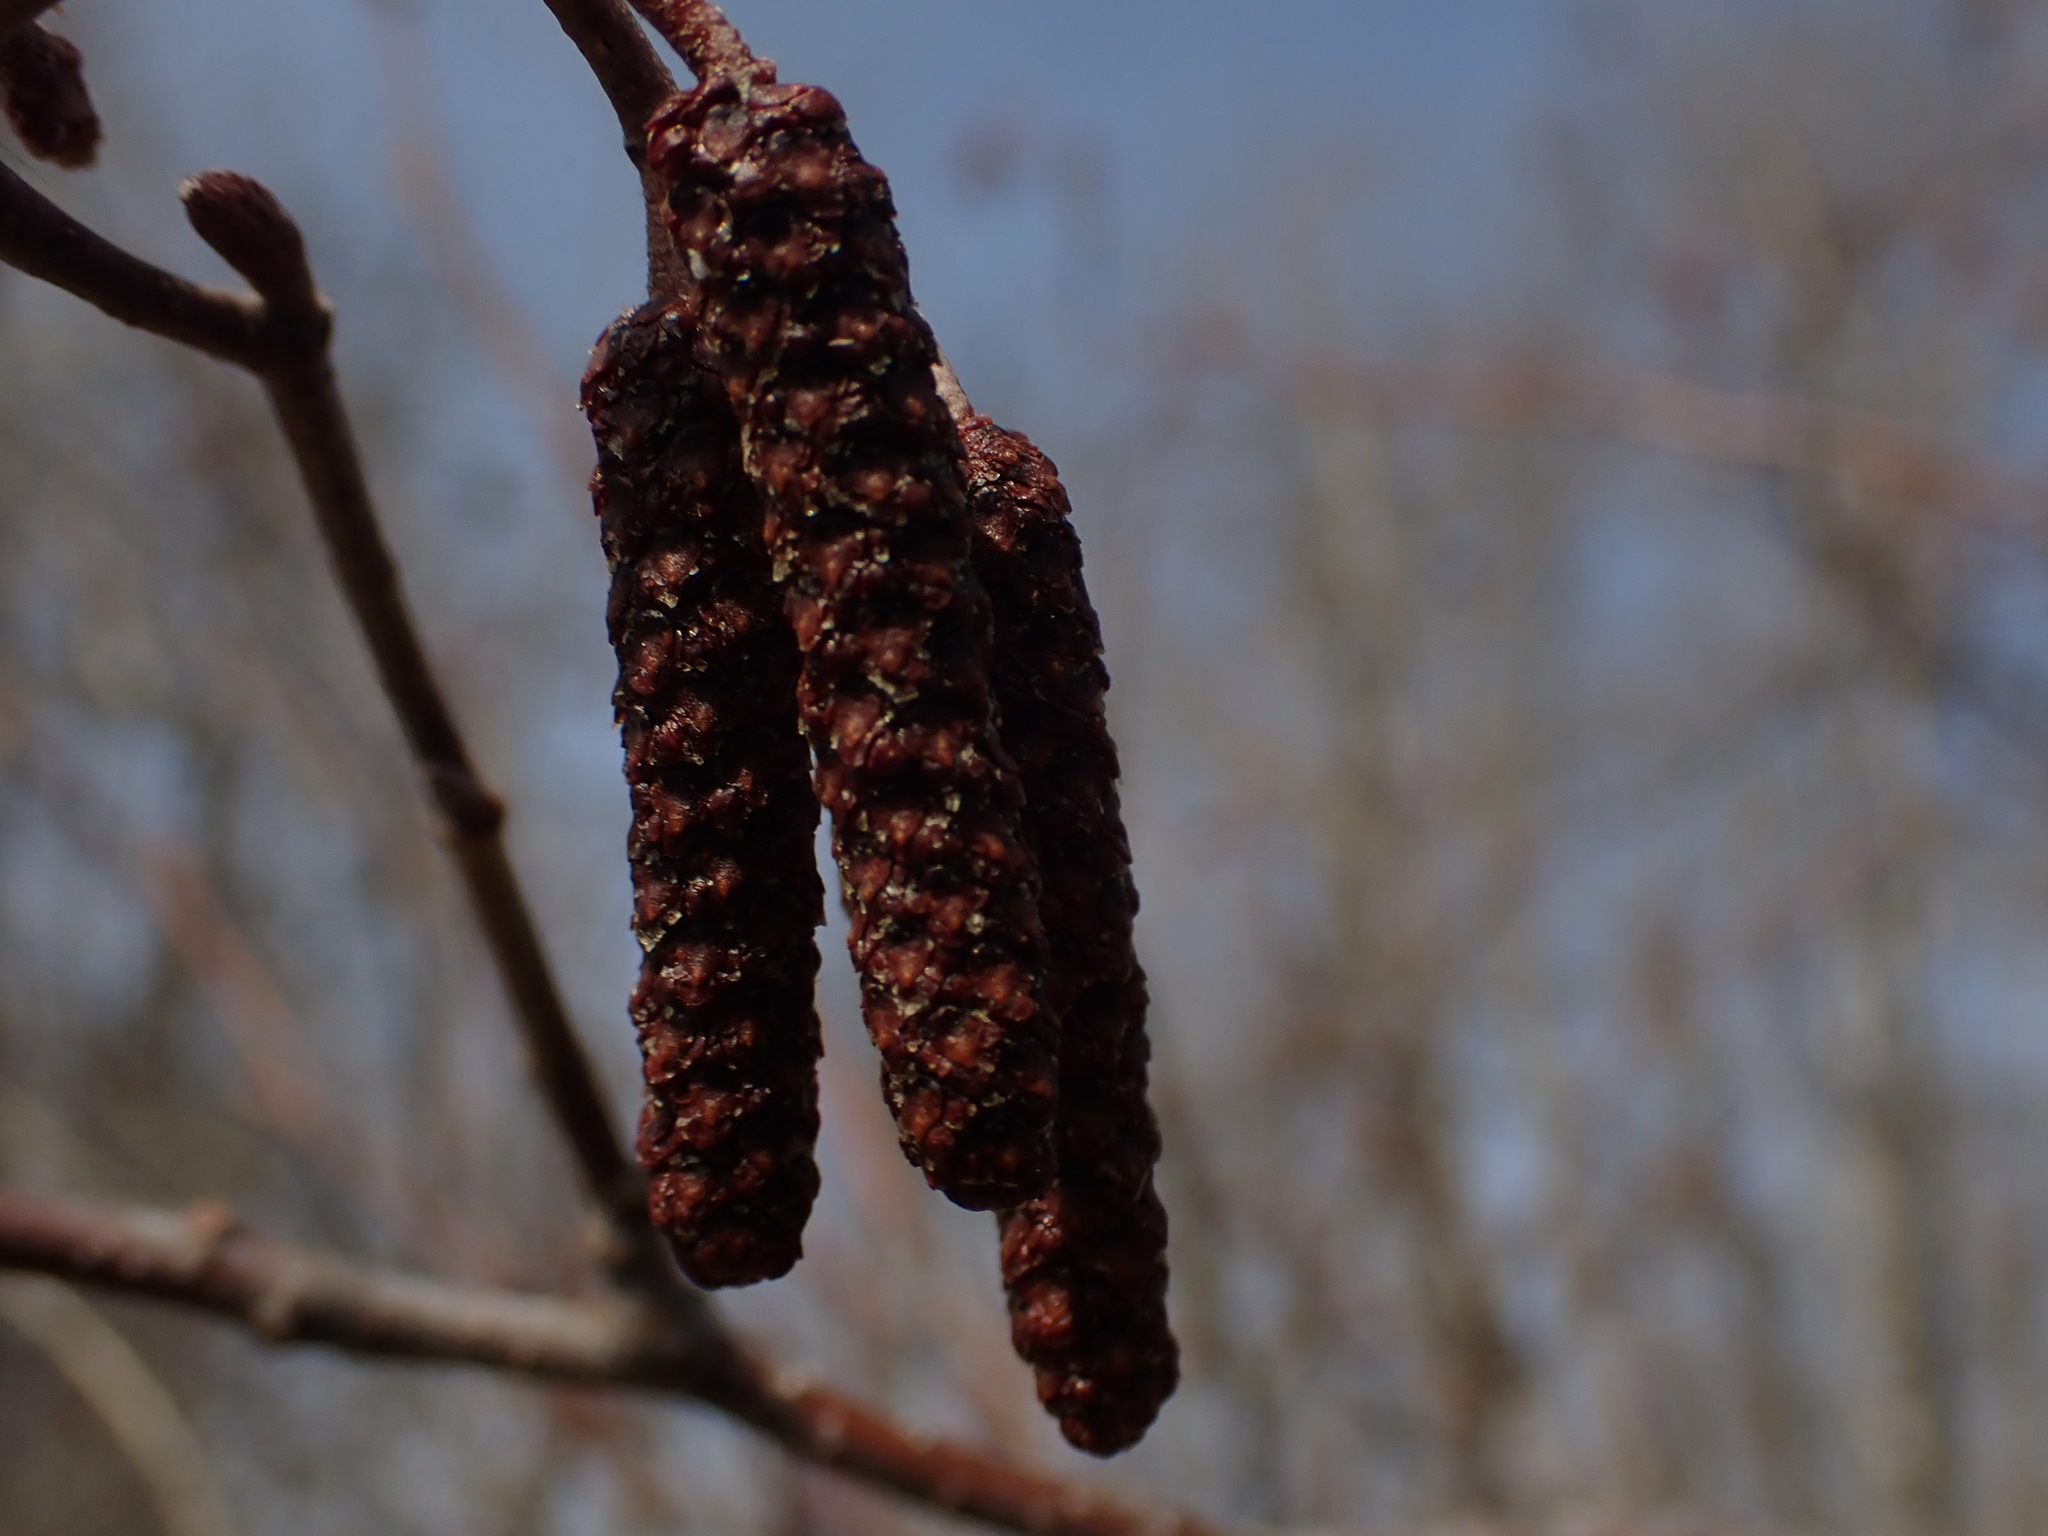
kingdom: Plantae
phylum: Tracheophyta
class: Magnoliopsida
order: Fagales
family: Betulaceae
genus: Alnus
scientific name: Alnus incana
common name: Grey alder
